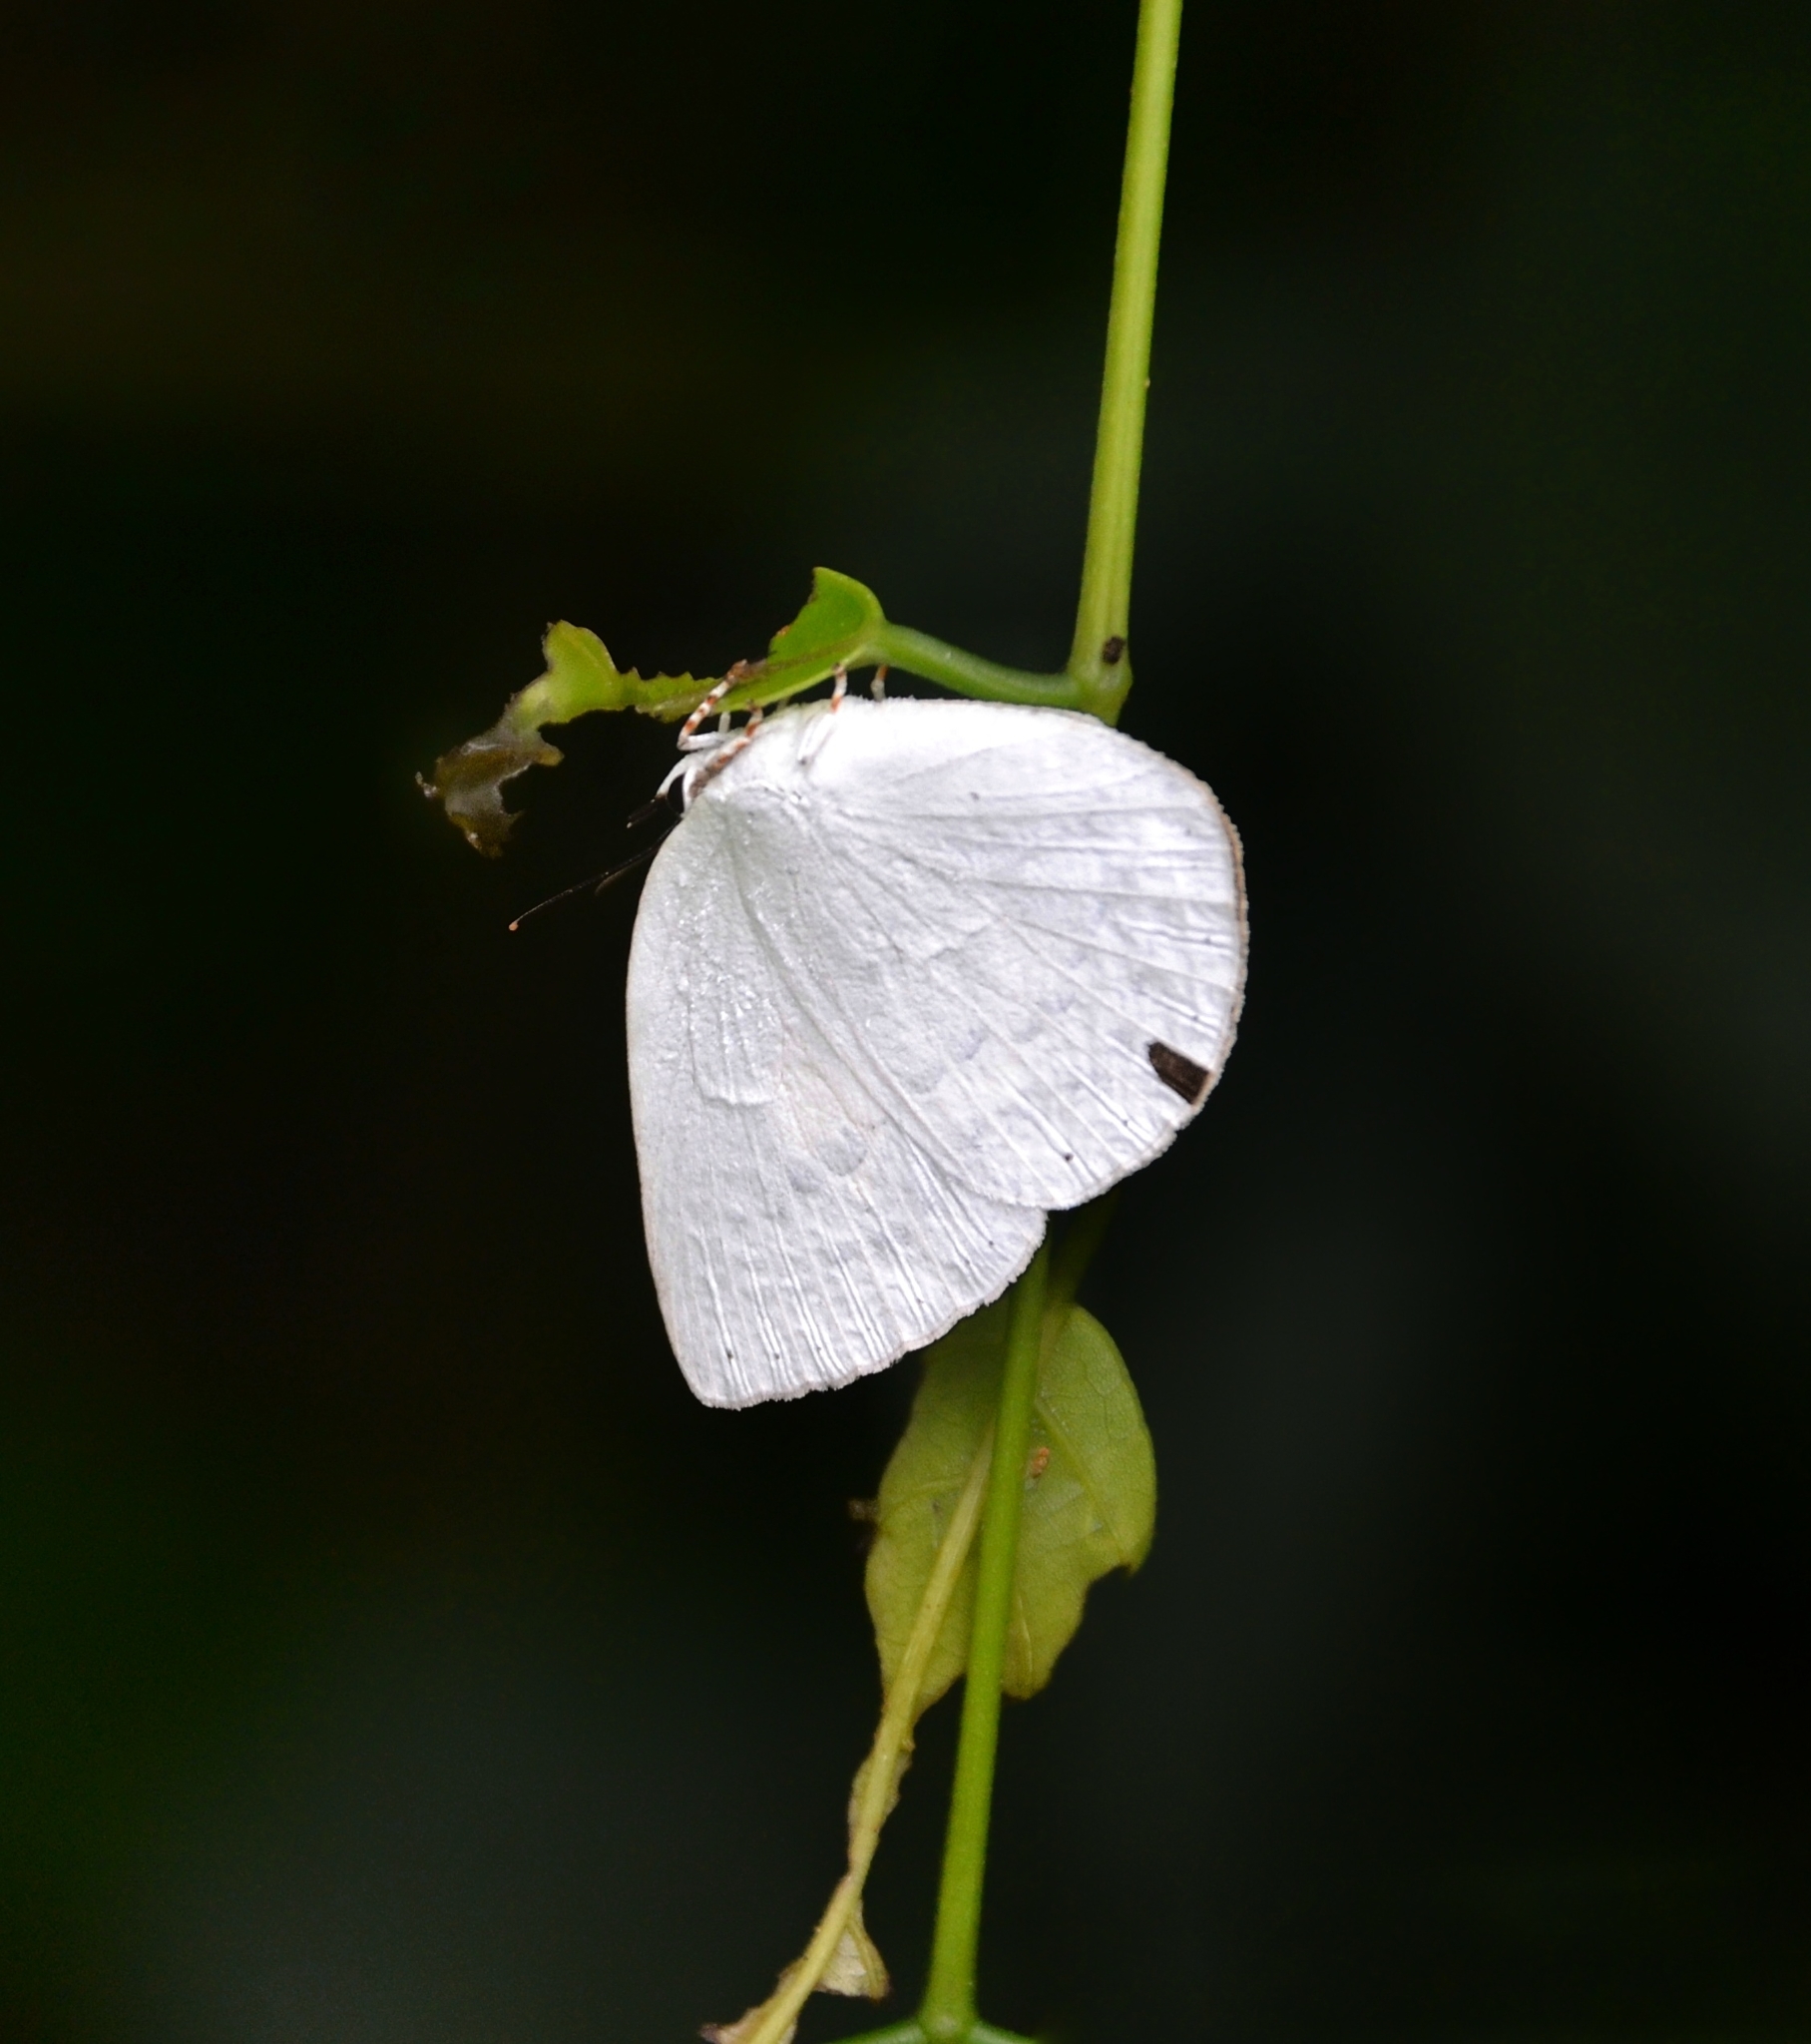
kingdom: Animalia
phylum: Arthropoda
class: Insecta
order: Lepidoptera
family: Lycaenidae
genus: Curetis
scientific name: Curetis thetis
